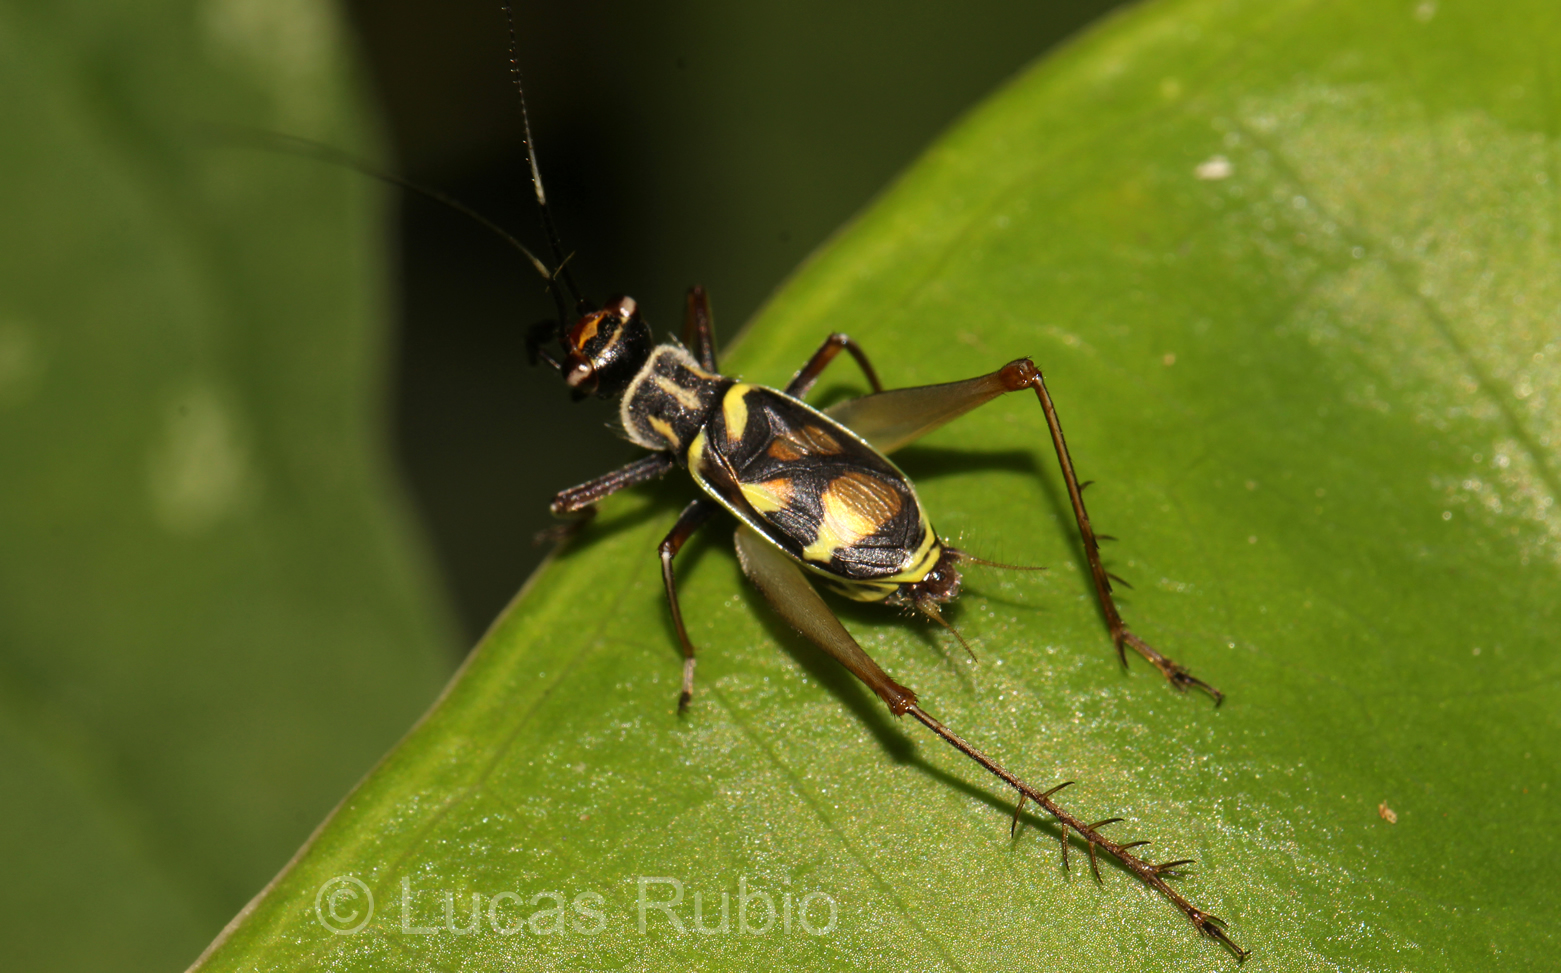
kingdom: Animalia
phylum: Arthropoda
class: Insecta
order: Orthoptera
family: Trigonidiidae
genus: Phylloscyrtus
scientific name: Phylloscyrtus amoenus
